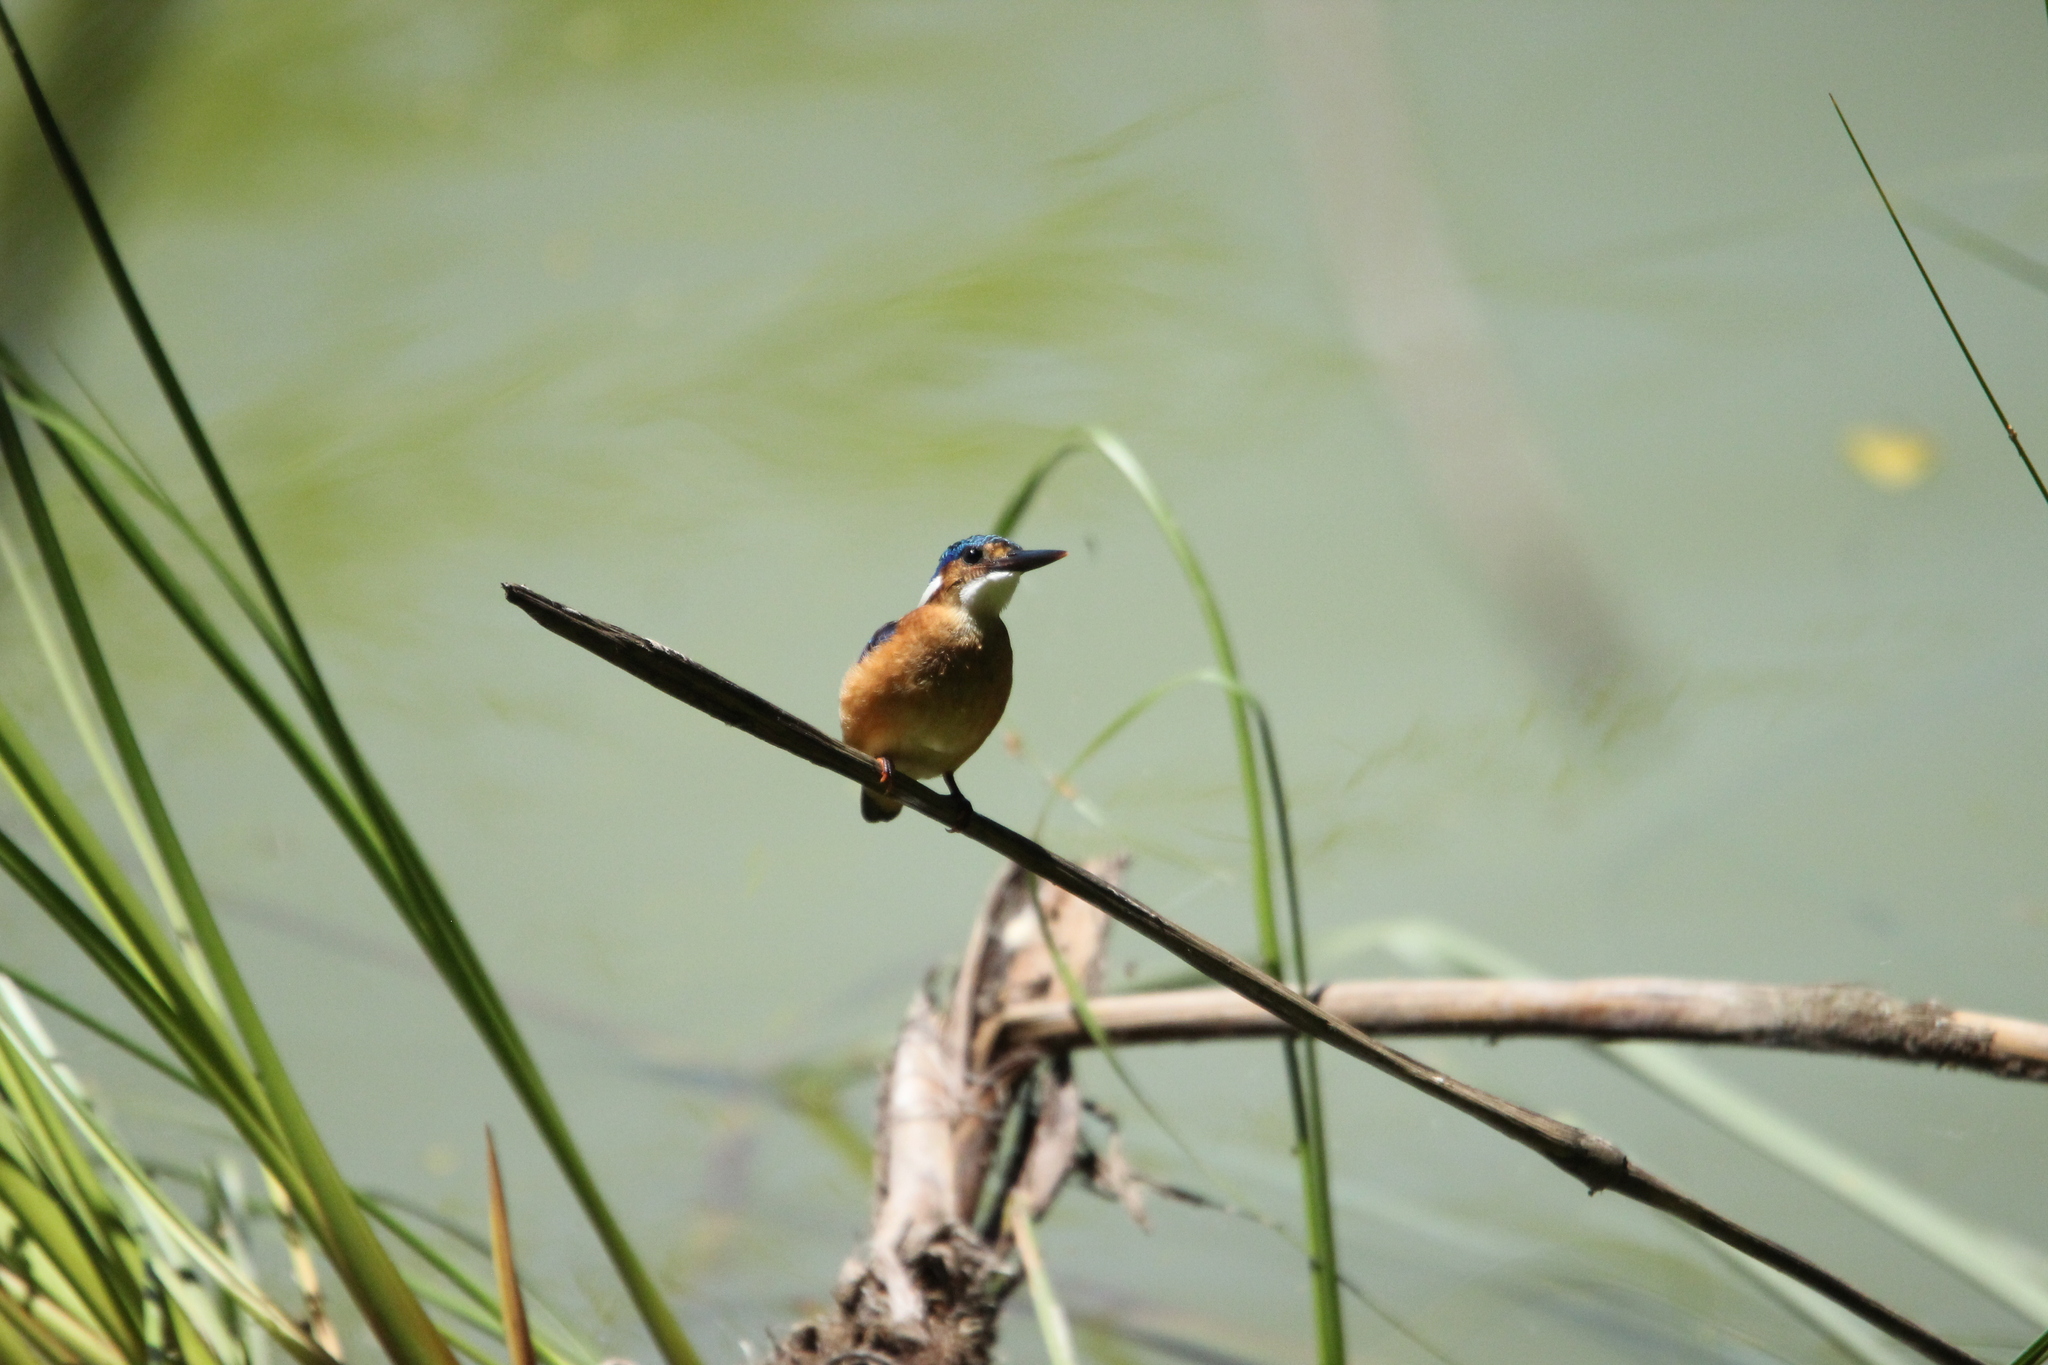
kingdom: Animalia
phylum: Chordata
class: Aves
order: Coraciiformes
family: Alcedinidae
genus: Corythornis
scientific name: Corythornis cristatus
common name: Malachite kingfisher
